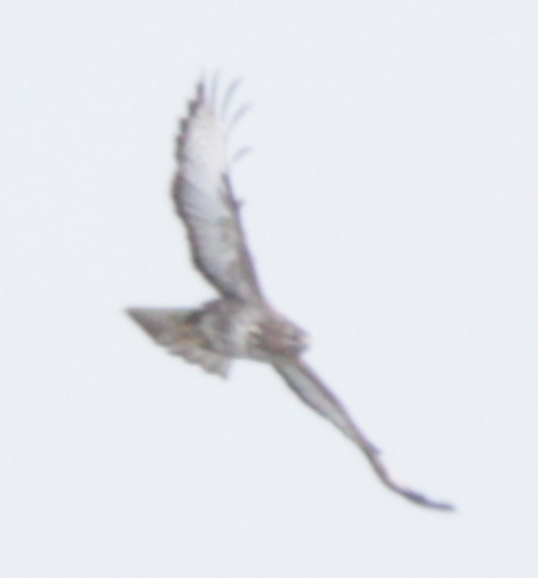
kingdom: Animalia
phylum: Chordata
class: Aves
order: Accipitriformes
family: Accipitridae
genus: Buteo
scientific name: Buteo buteo
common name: Common buzzard
